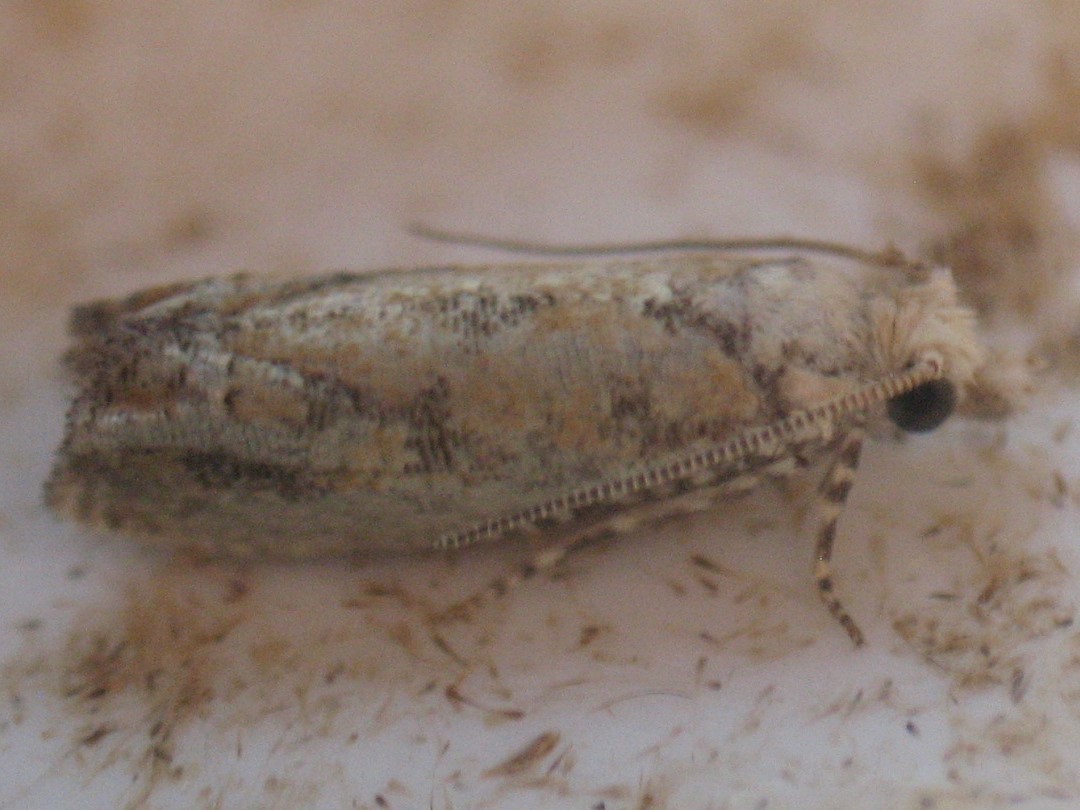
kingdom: Animalia
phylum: Arthropoda
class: Insecta
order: Lepidoptera
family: Tortricidae
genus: Pelochrista
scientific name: Pelochrista pallidipalpana
